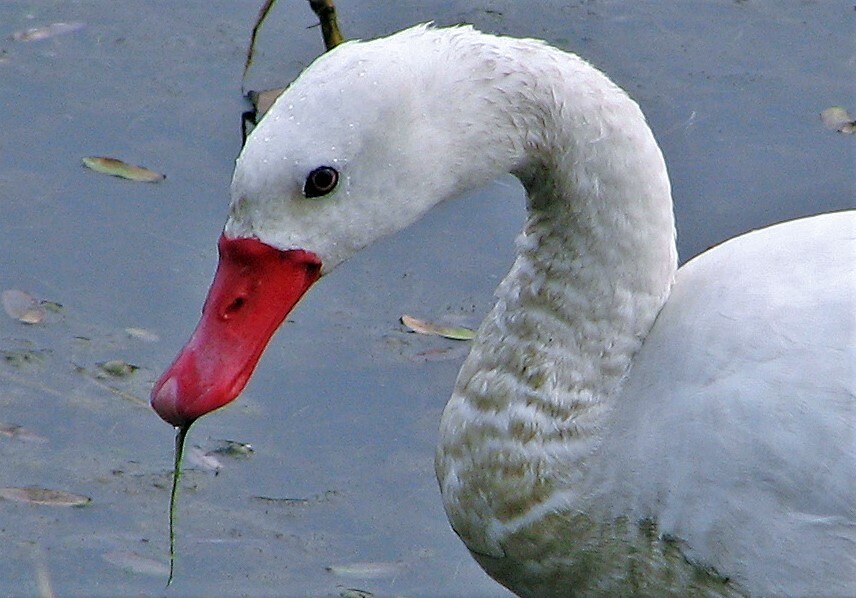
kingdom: Animalia
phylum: Chordata
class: Aves
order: Anseriformes
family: Anatidae
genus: Coscoroba
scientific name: Coscoroba coscoroba
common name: Coscoroba swan
